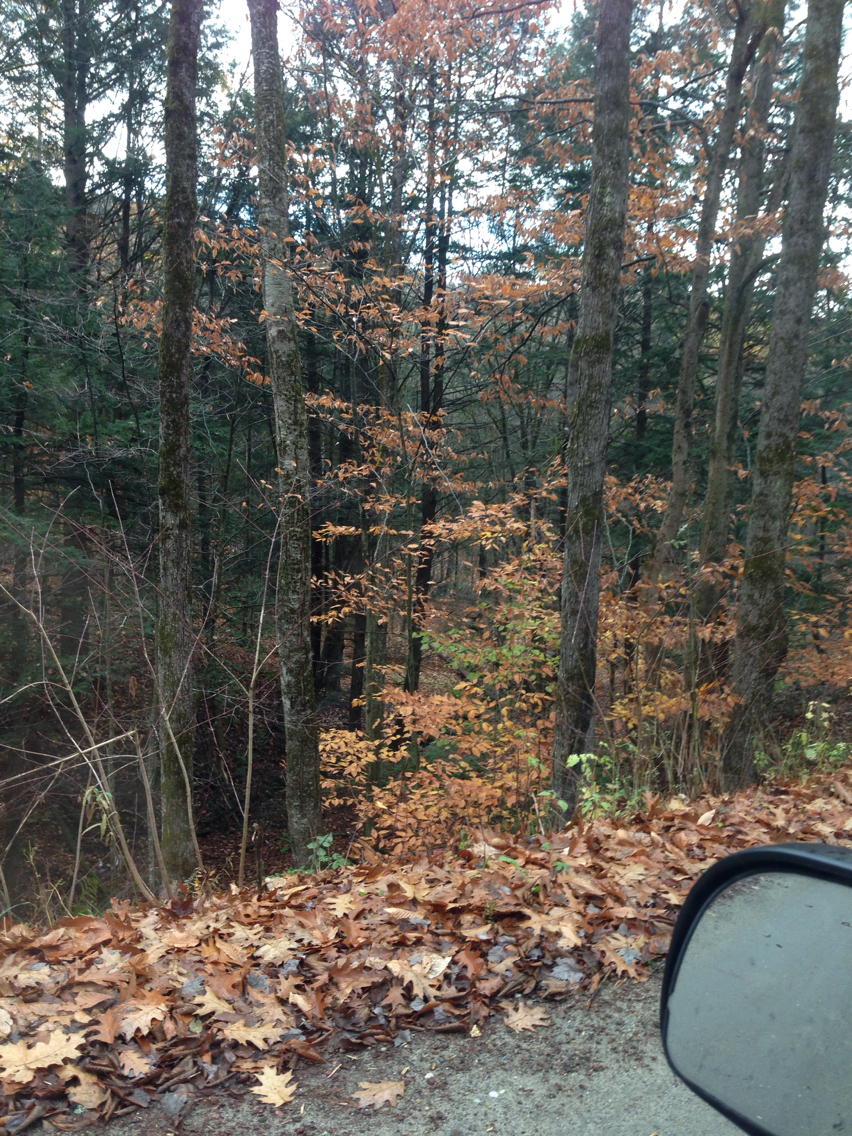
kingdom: Plantae
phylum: Tracheophyta
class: Magnoliopsida
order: Fagales
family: Fagaceae
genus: Fagus
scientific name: Fagus grandifolia
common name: American beech
